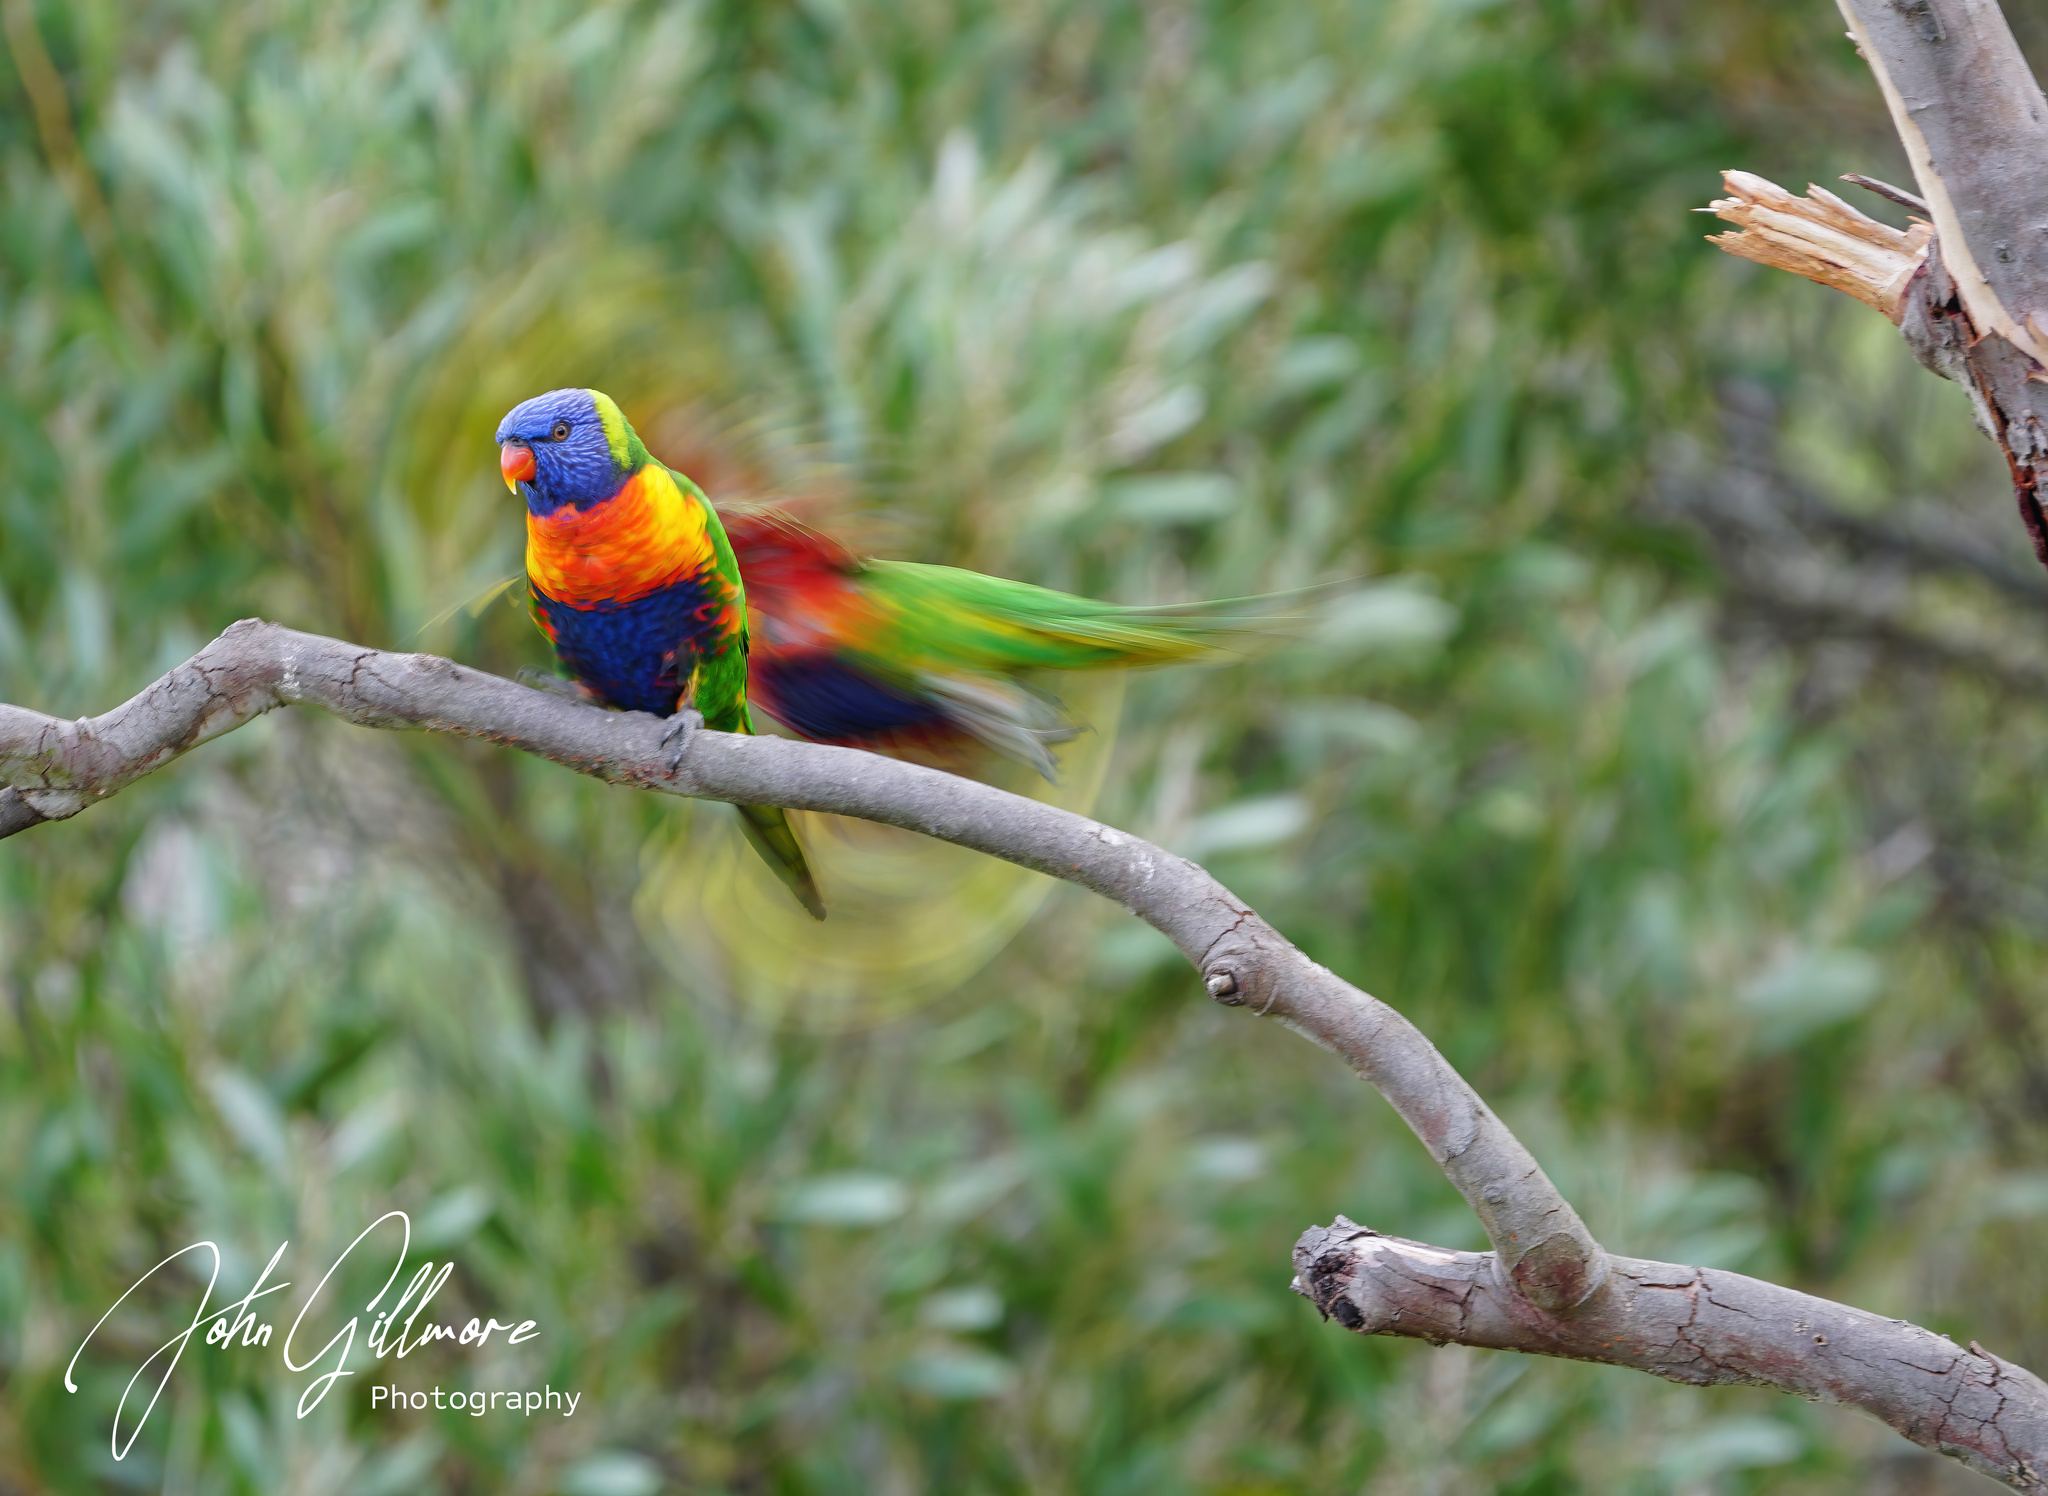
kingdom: Animalia
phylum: Chordata
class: Aves
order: Psittaciformes
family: Psittacidae
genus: Trichoglossus
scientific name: Trichoglossus haematodus
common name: Coconut lorikeet
